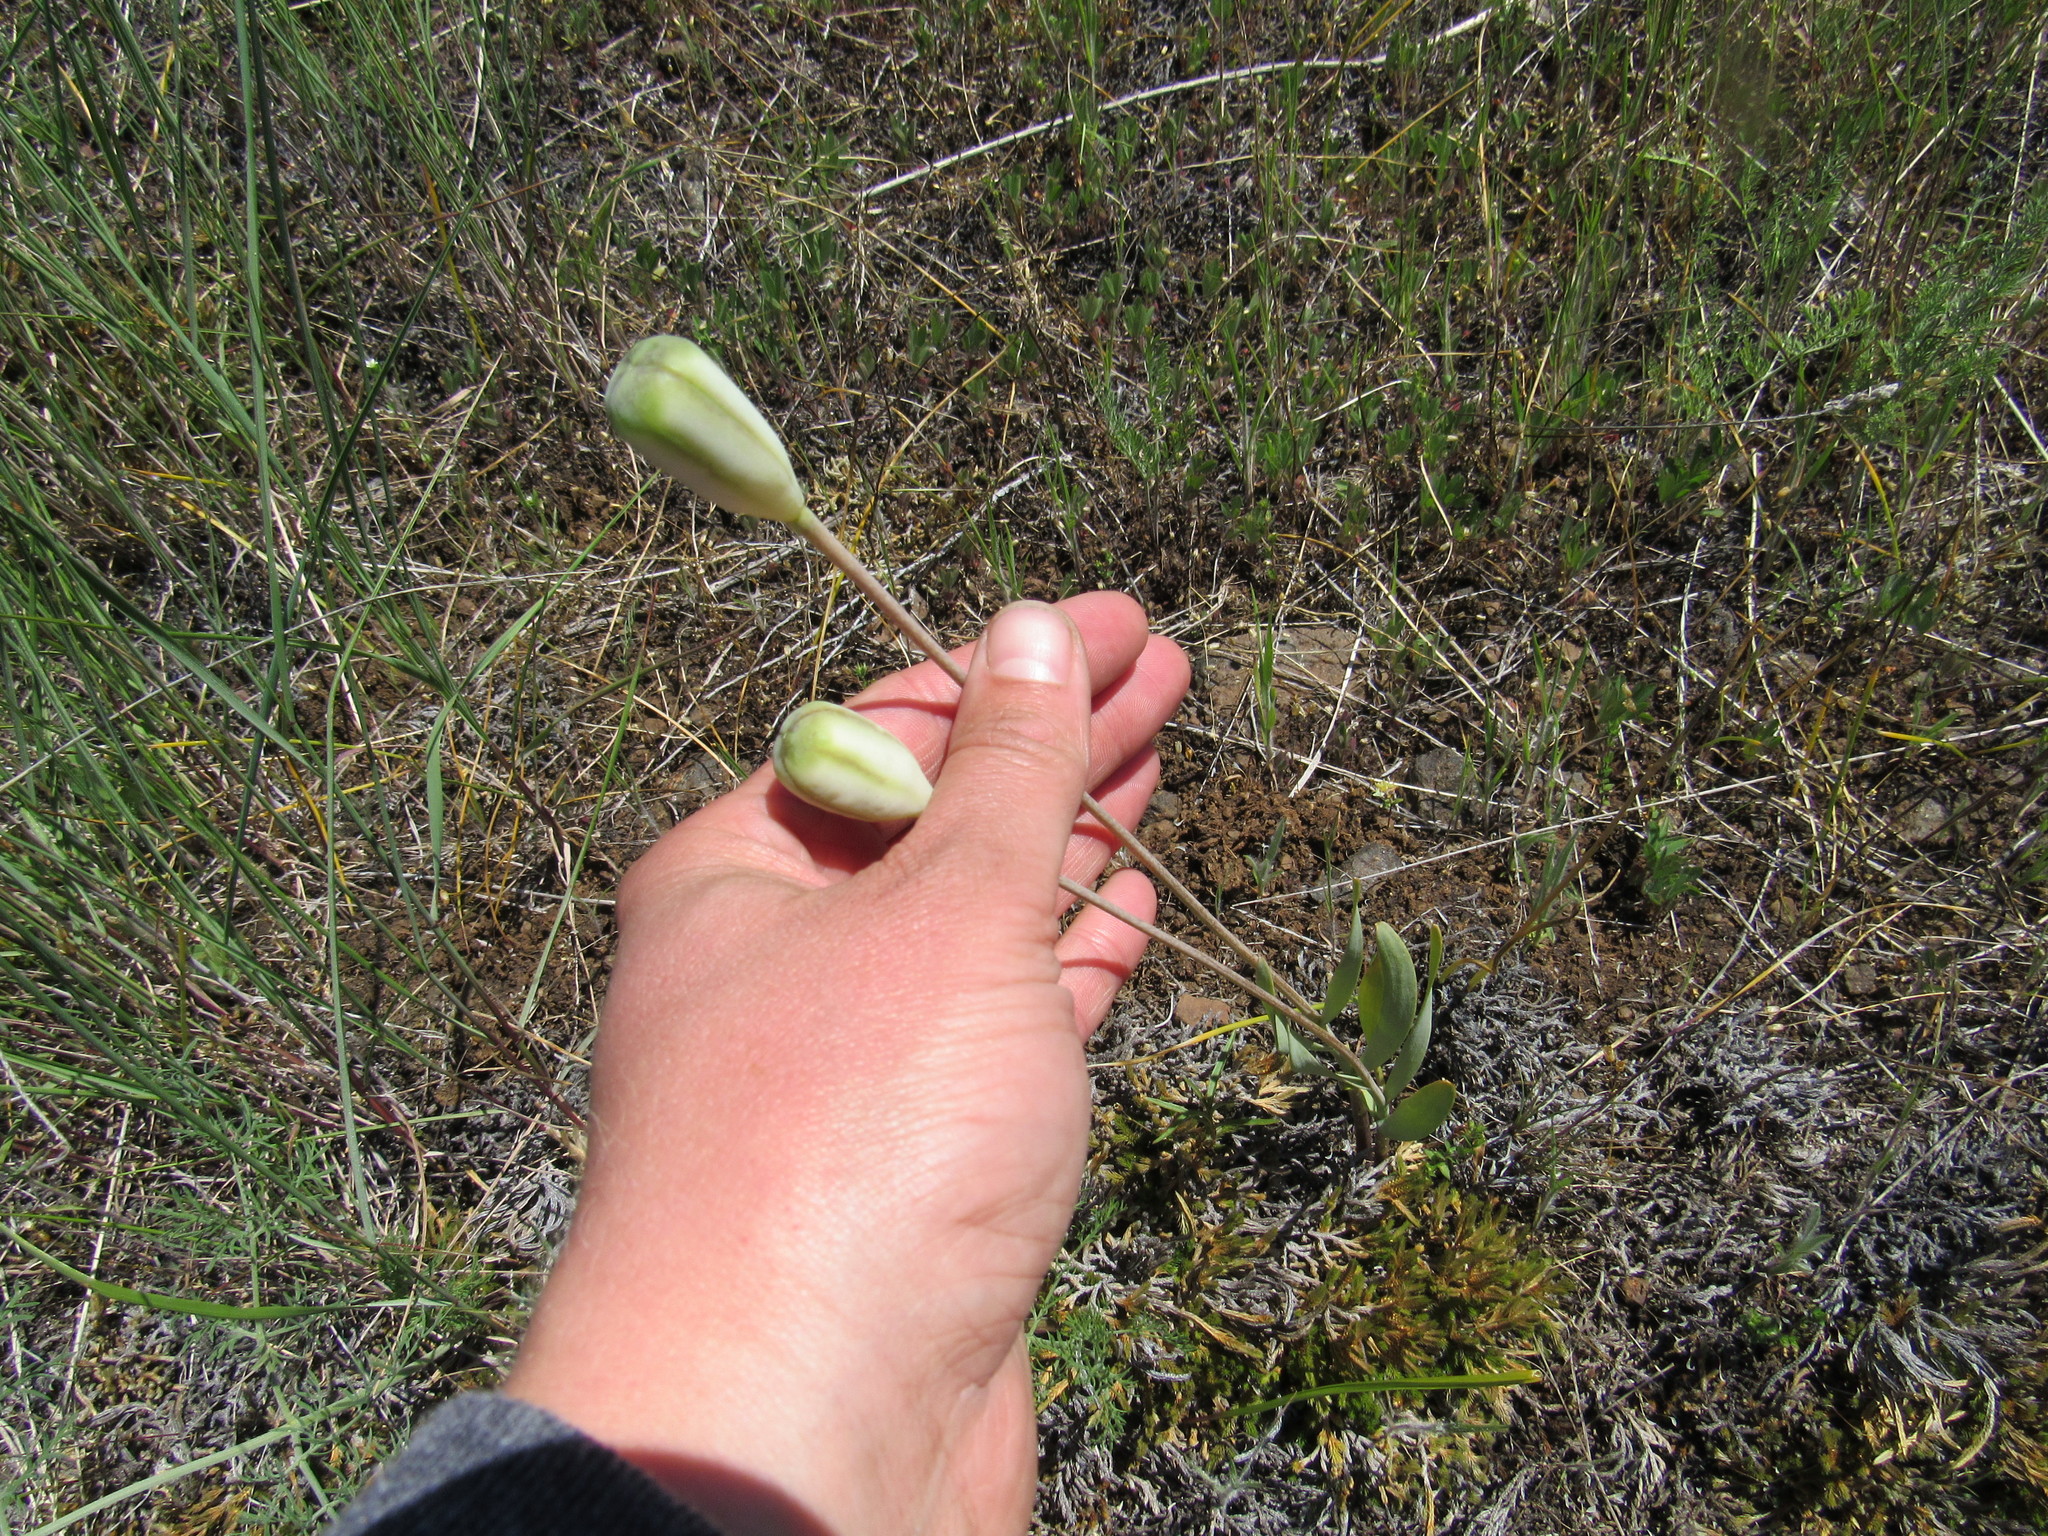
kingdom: Plantae
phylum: Tracheophyta
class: Liliopsida
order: Liliales
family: Liliaceae
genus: Fritillaria
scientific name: Fritillaria pudica
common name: Yellow fritillary
